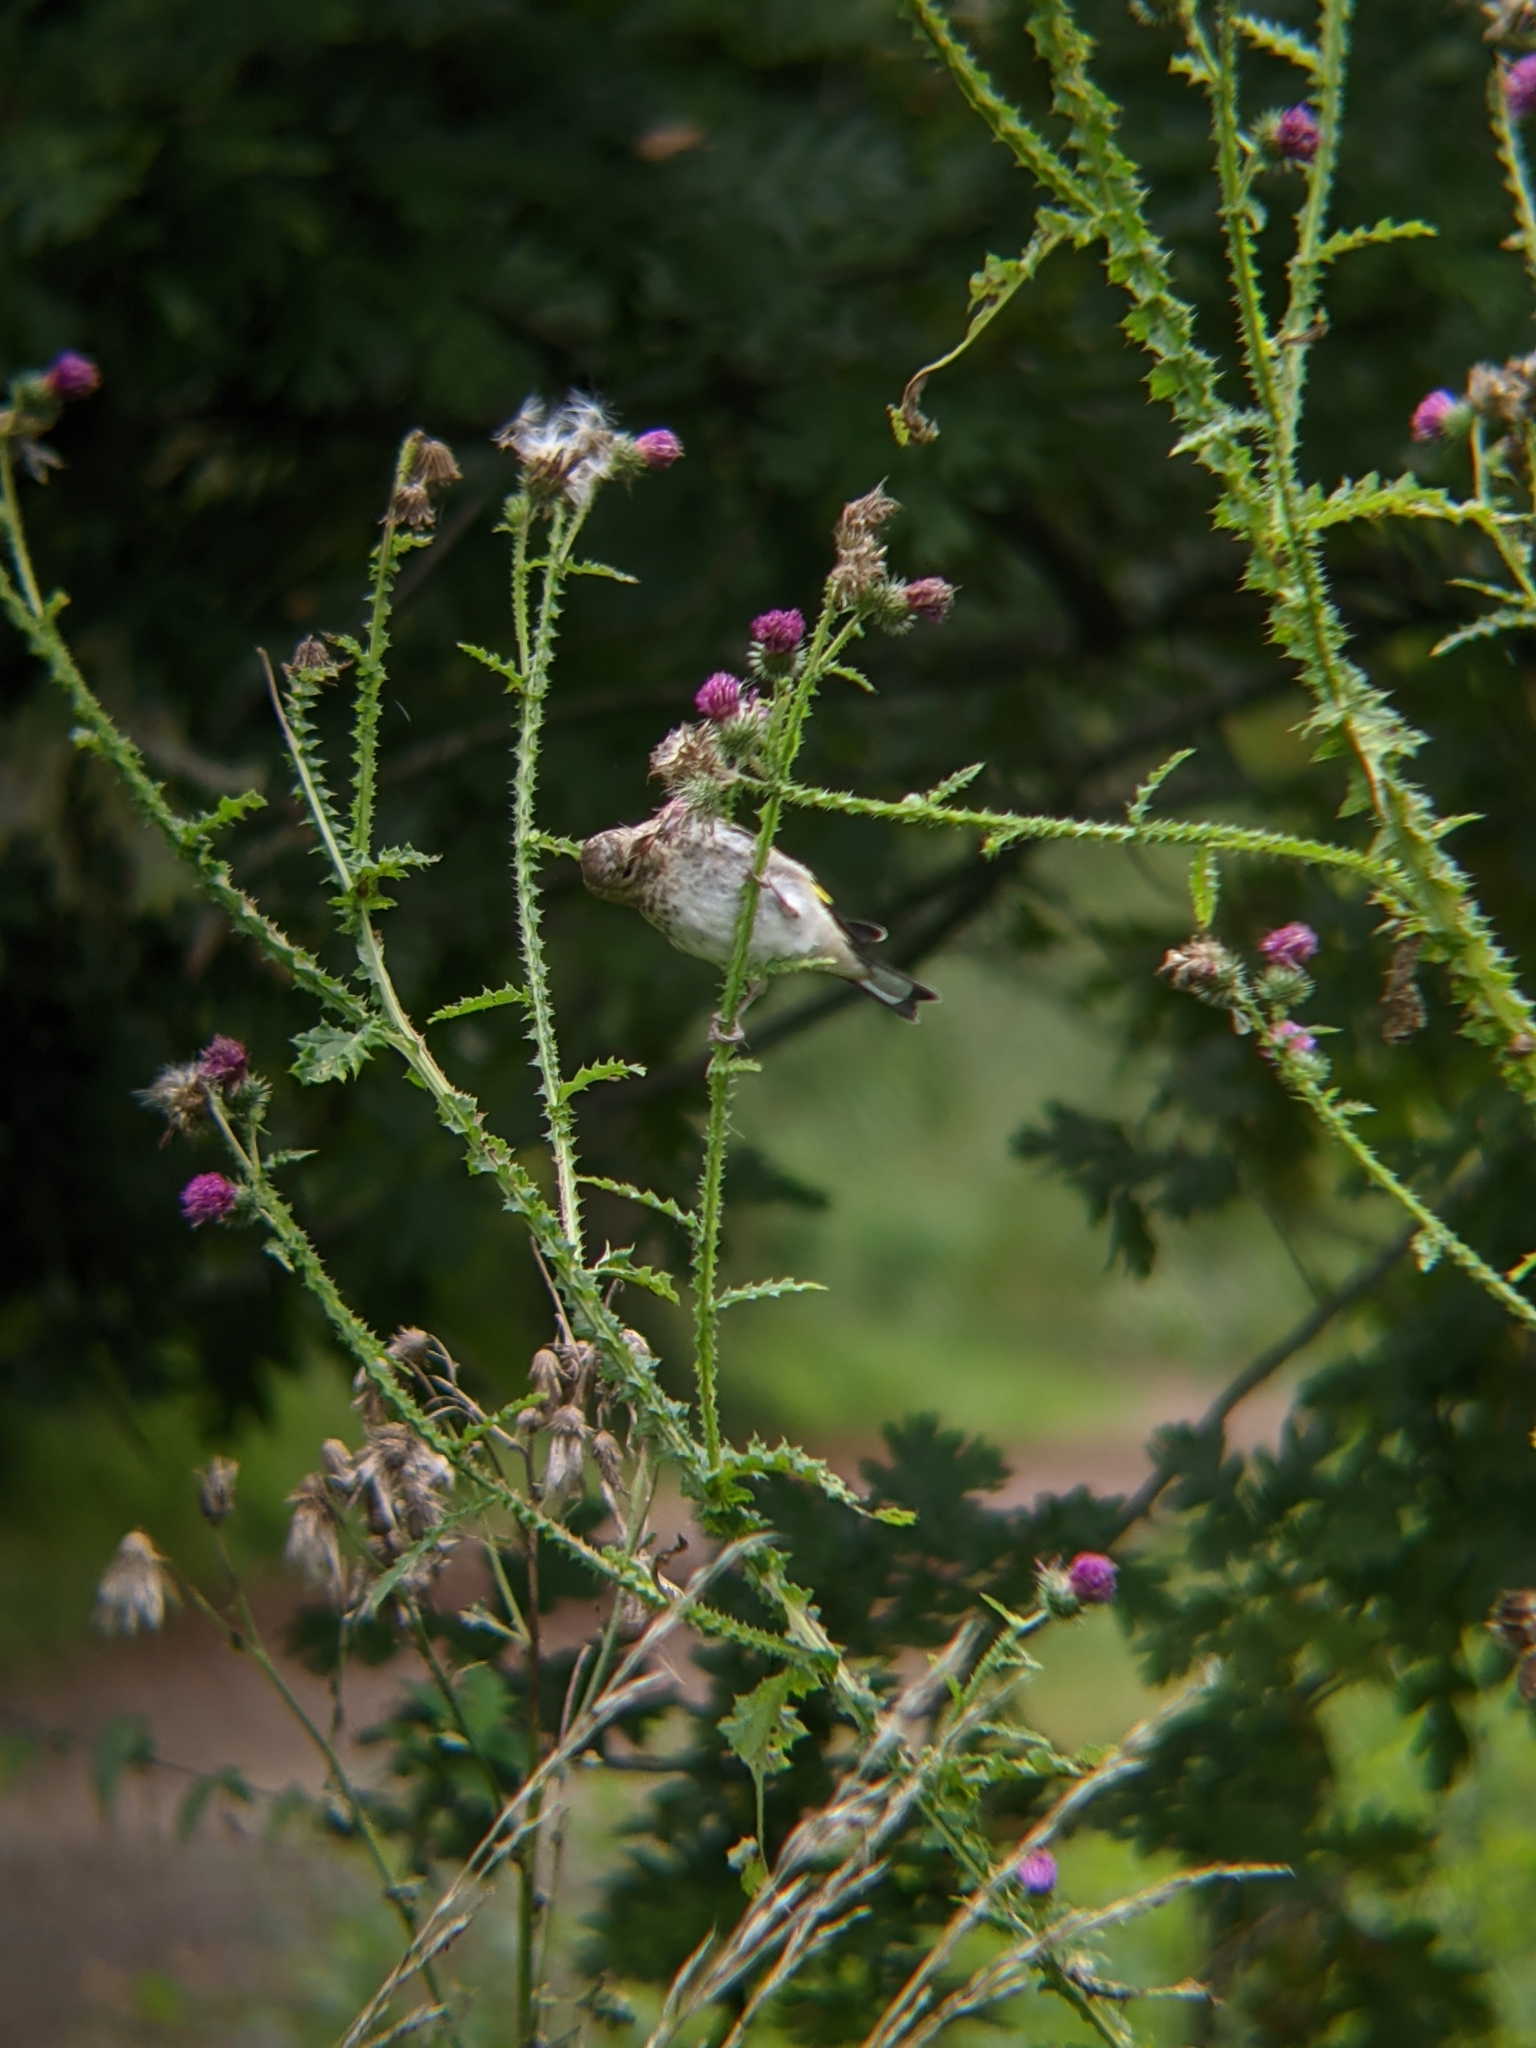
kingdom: Animalia
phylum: Chordata
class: Aves
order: Passeriformes
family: Fringillidae
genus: Carduelis
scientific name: Carduelis carduelis
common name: European goldfinch
